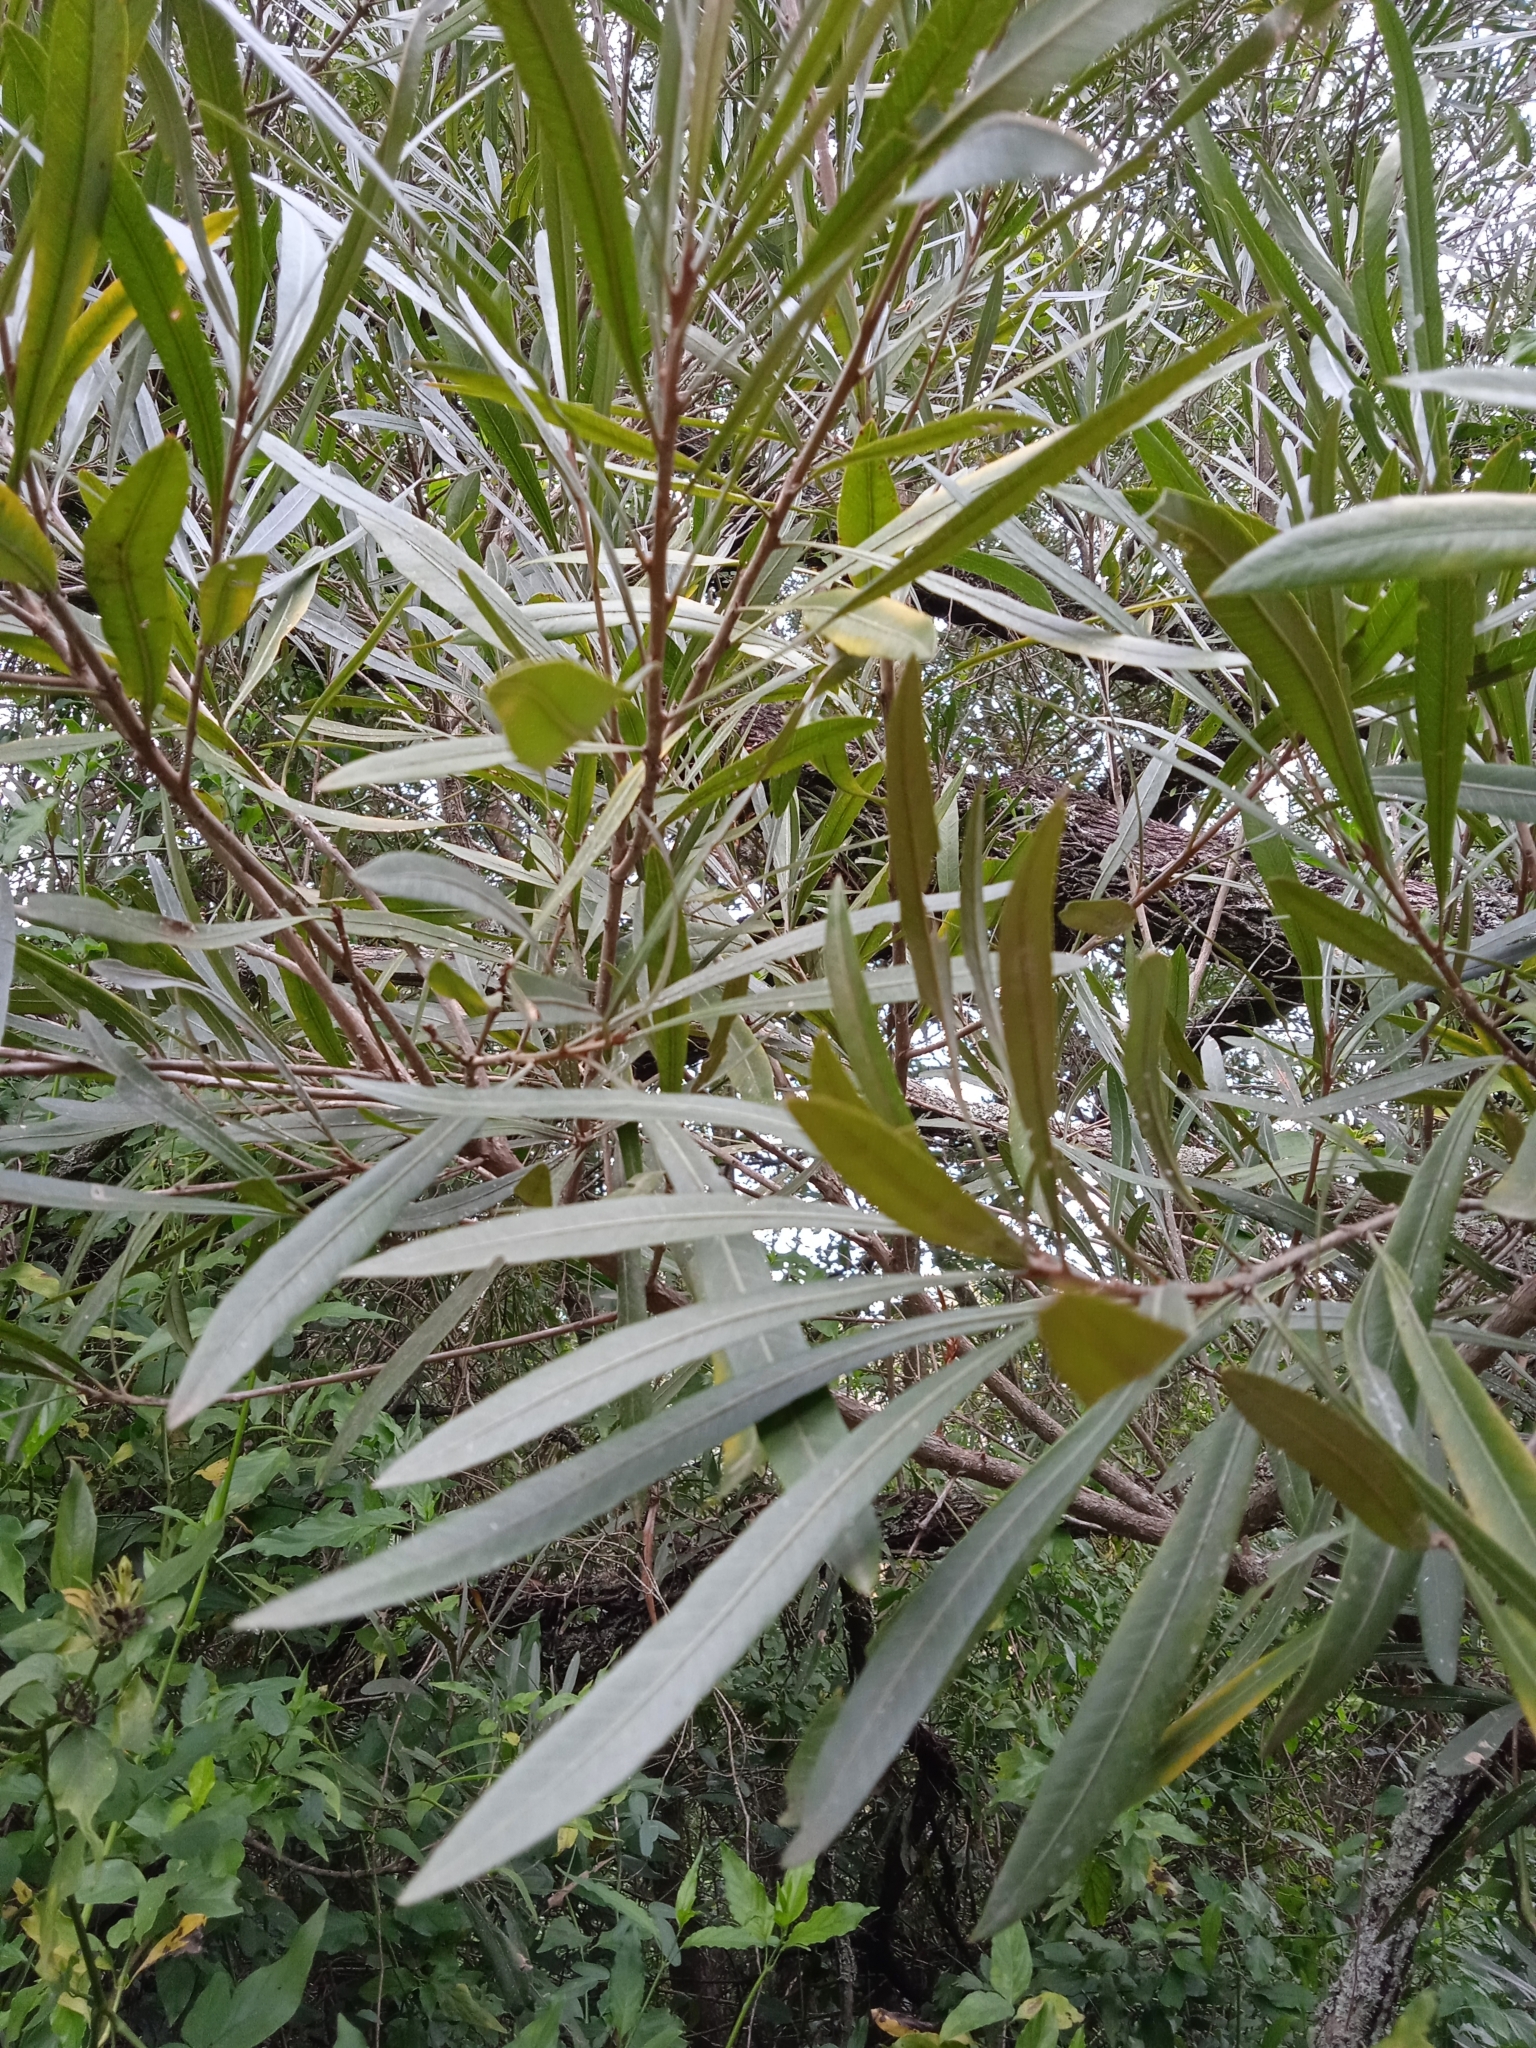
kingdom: Plantae
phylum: Tracheophyta
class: Magnoliopsida
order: Ericales
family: Sapotaceae
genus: Labatia
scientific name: Labatia salicifolia
